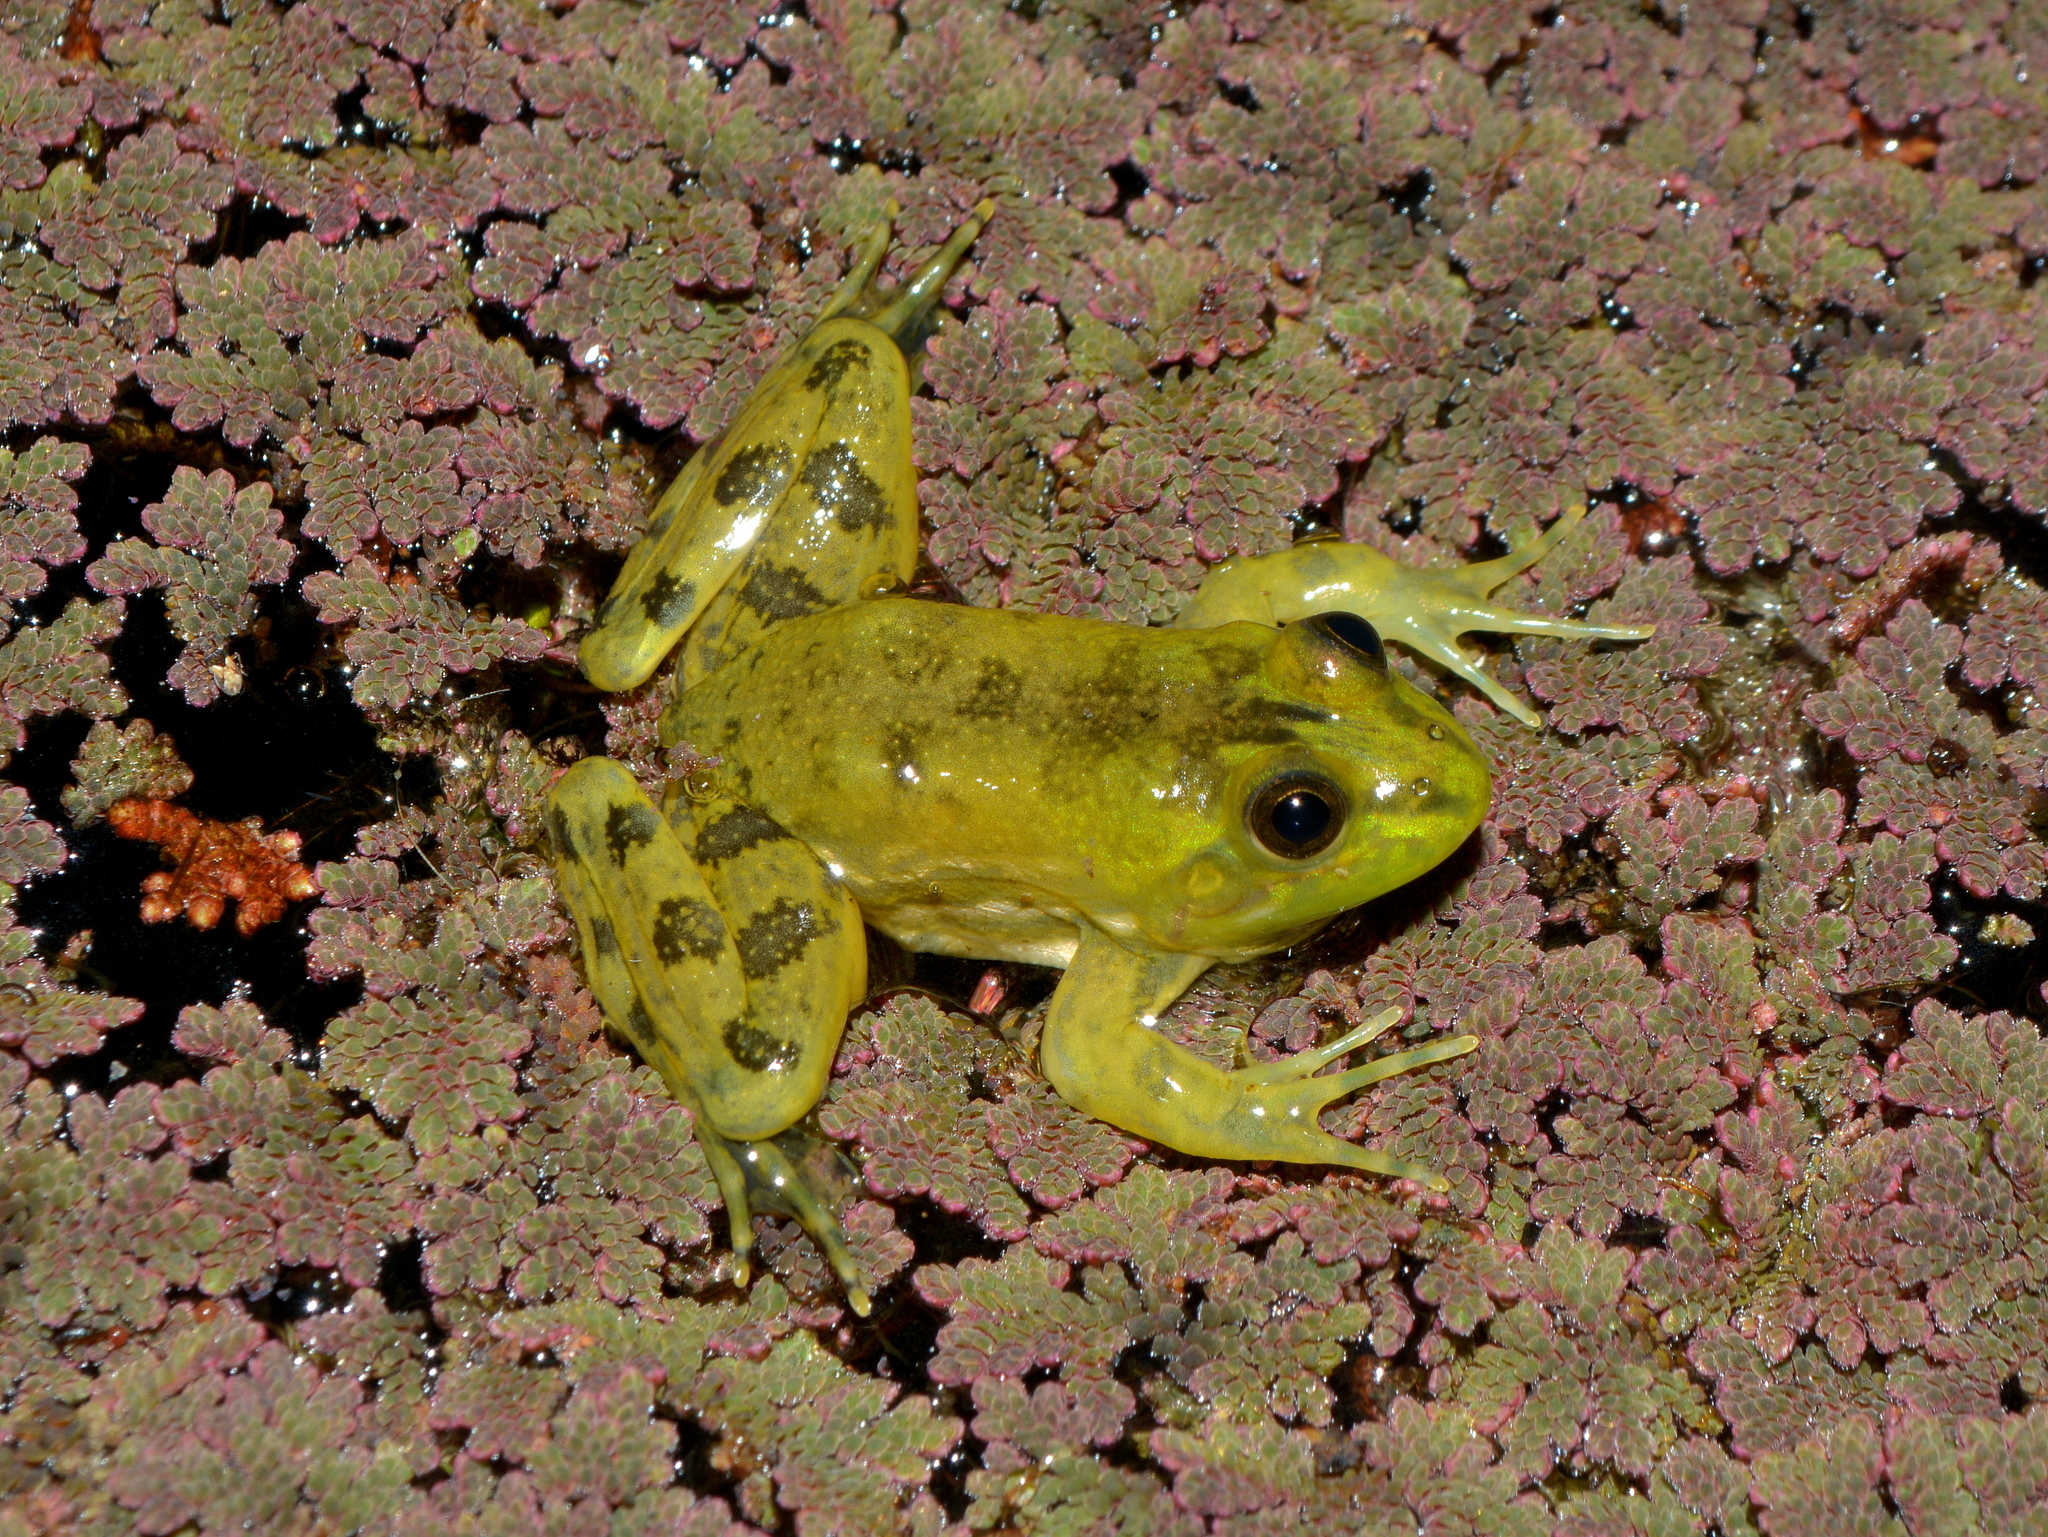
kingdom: Animalia
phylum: Chordata
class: Amphibia
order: Anura
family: Hylidae
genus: Pseudis
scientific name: Pseudis minuta
